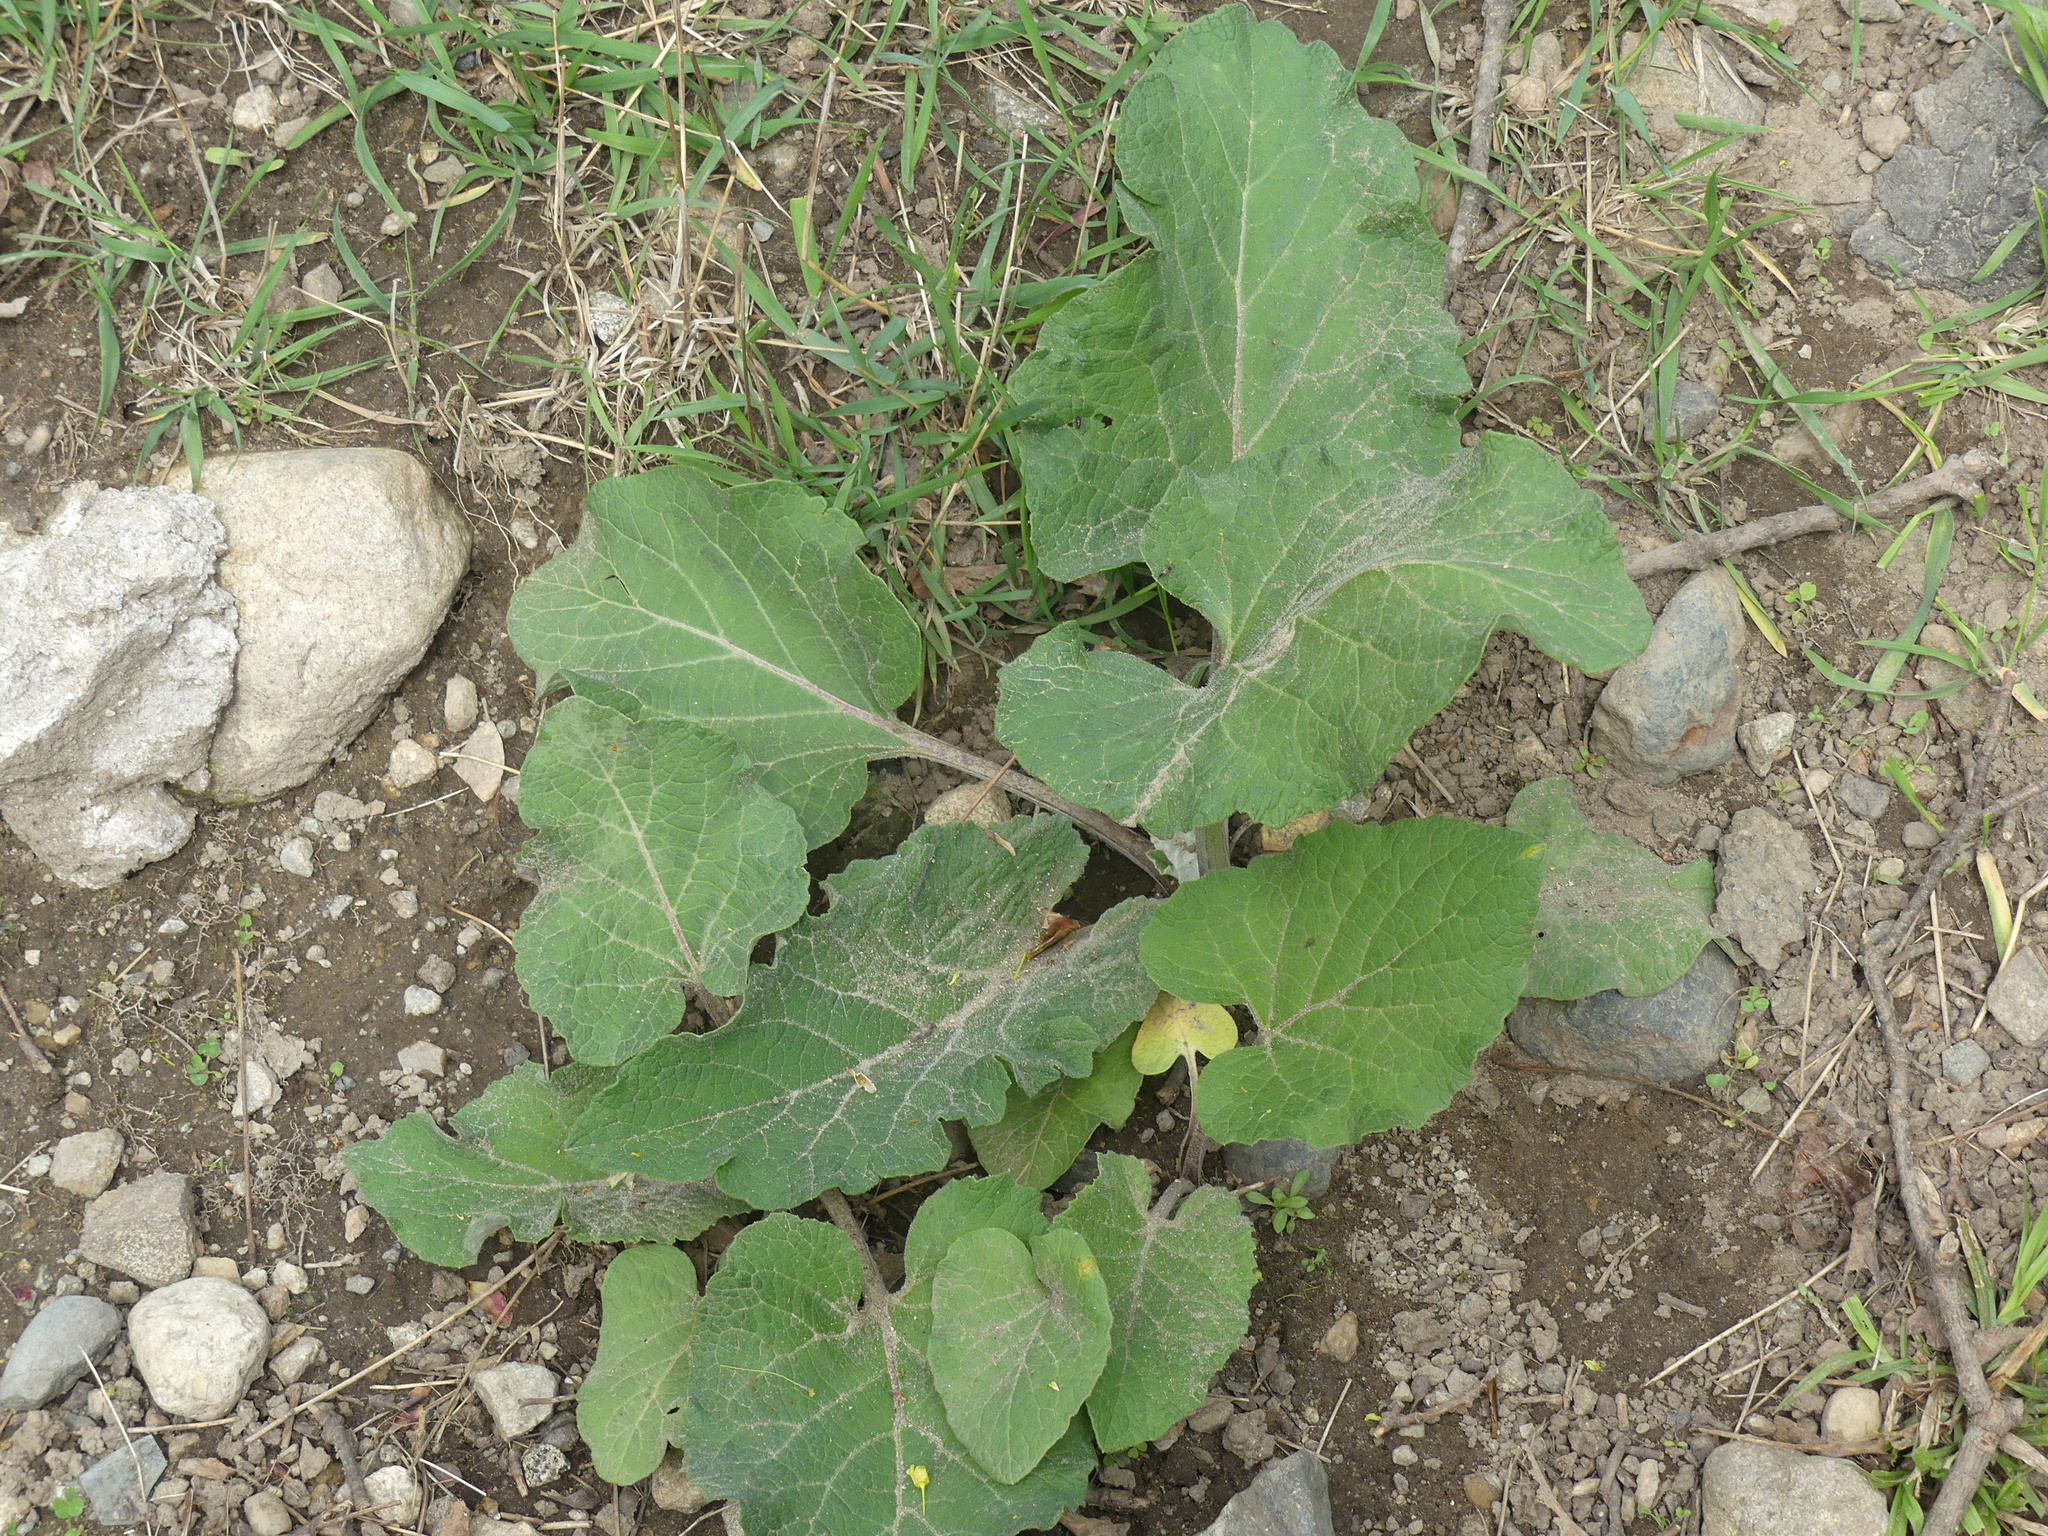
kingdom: Plantae
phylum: Tracheophyta
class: Magnoliopsida
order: Asterales
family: Asteraceae
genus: Arctium
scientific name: Arctium minus
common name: Lesser burdock
